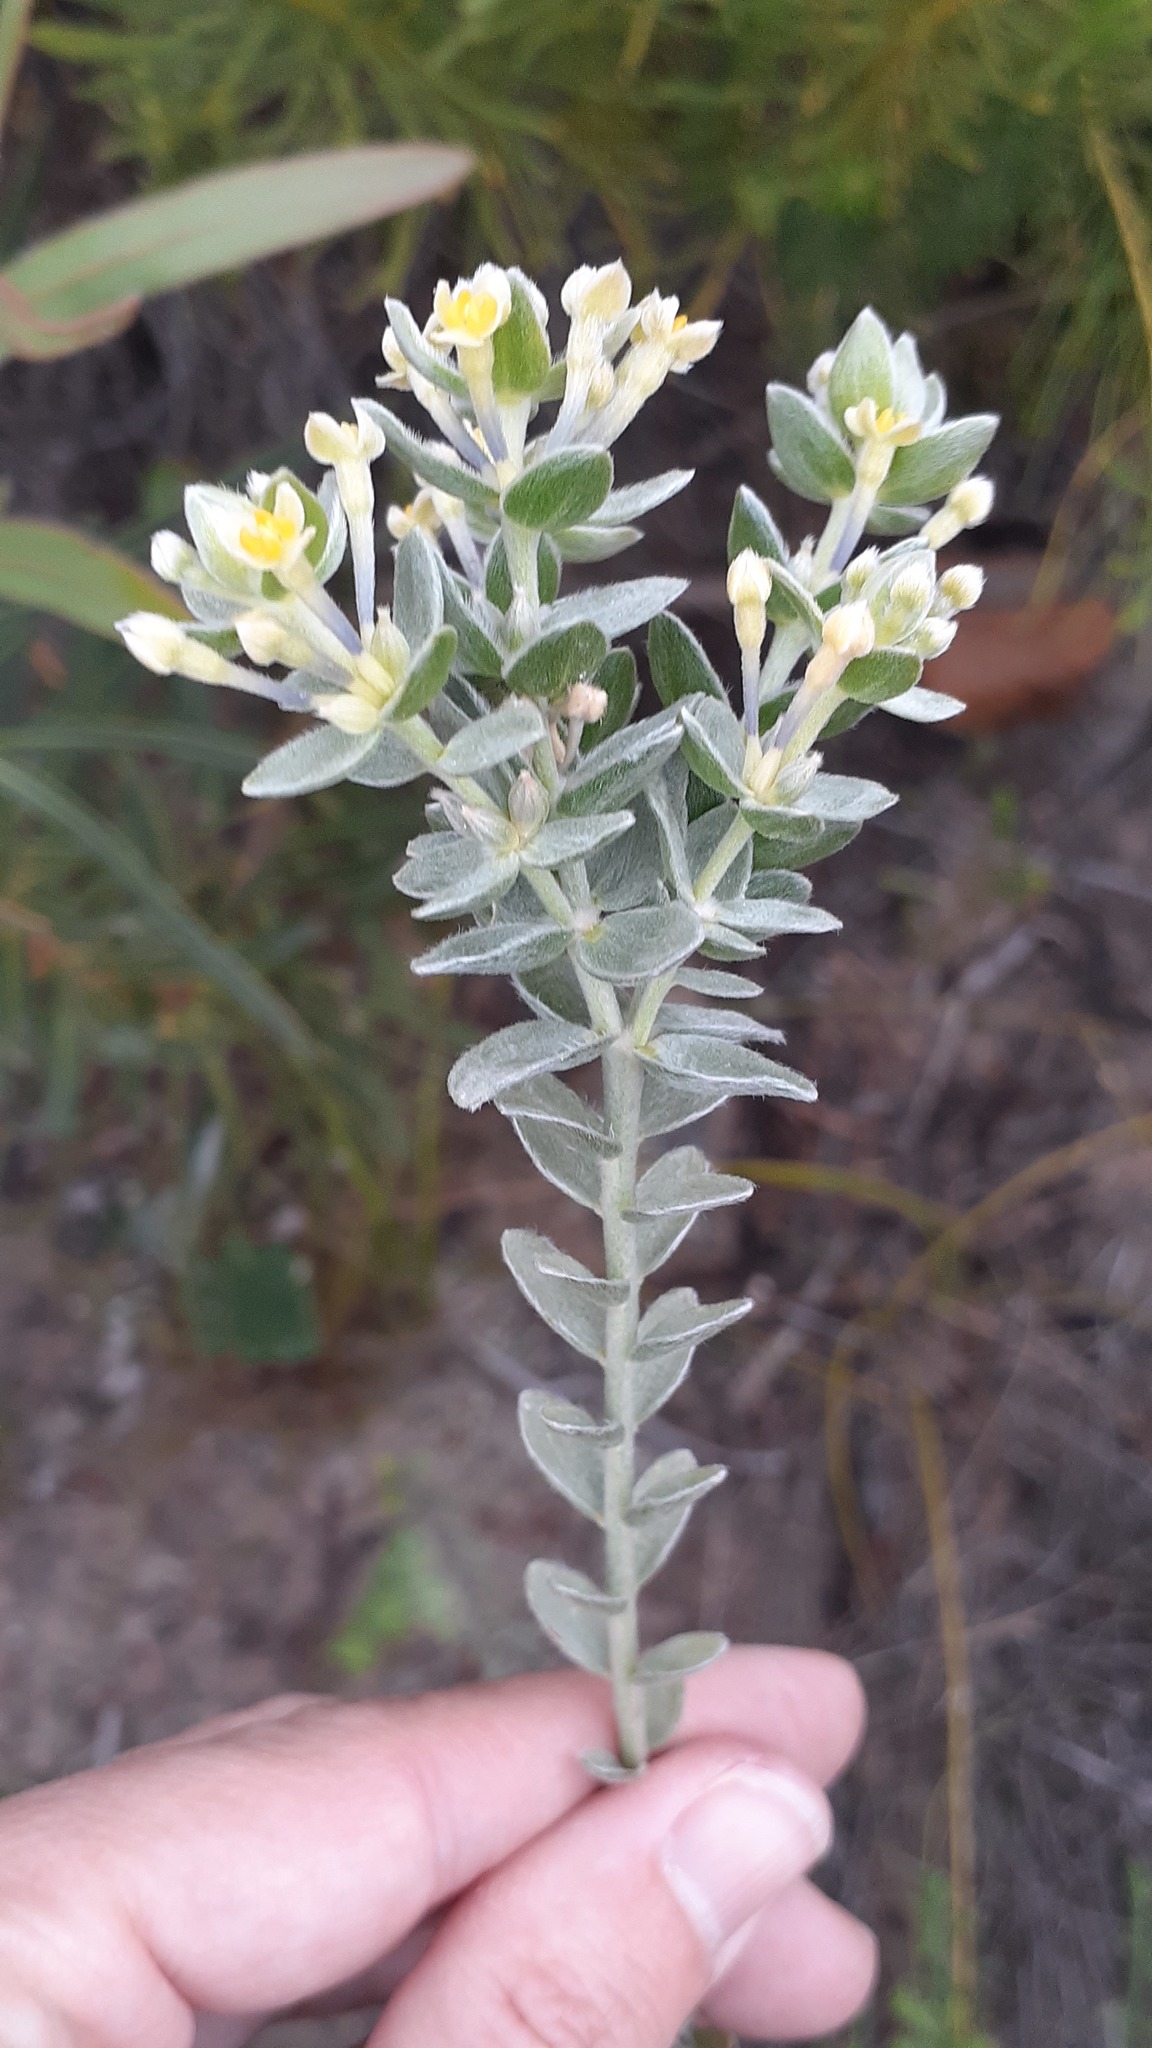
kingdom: Plantae
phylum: Tracheophyta
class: Magnoliopsida
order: Malvales
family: Thymelaeaceae
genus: Gnidia
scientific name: Gnidia anomala
